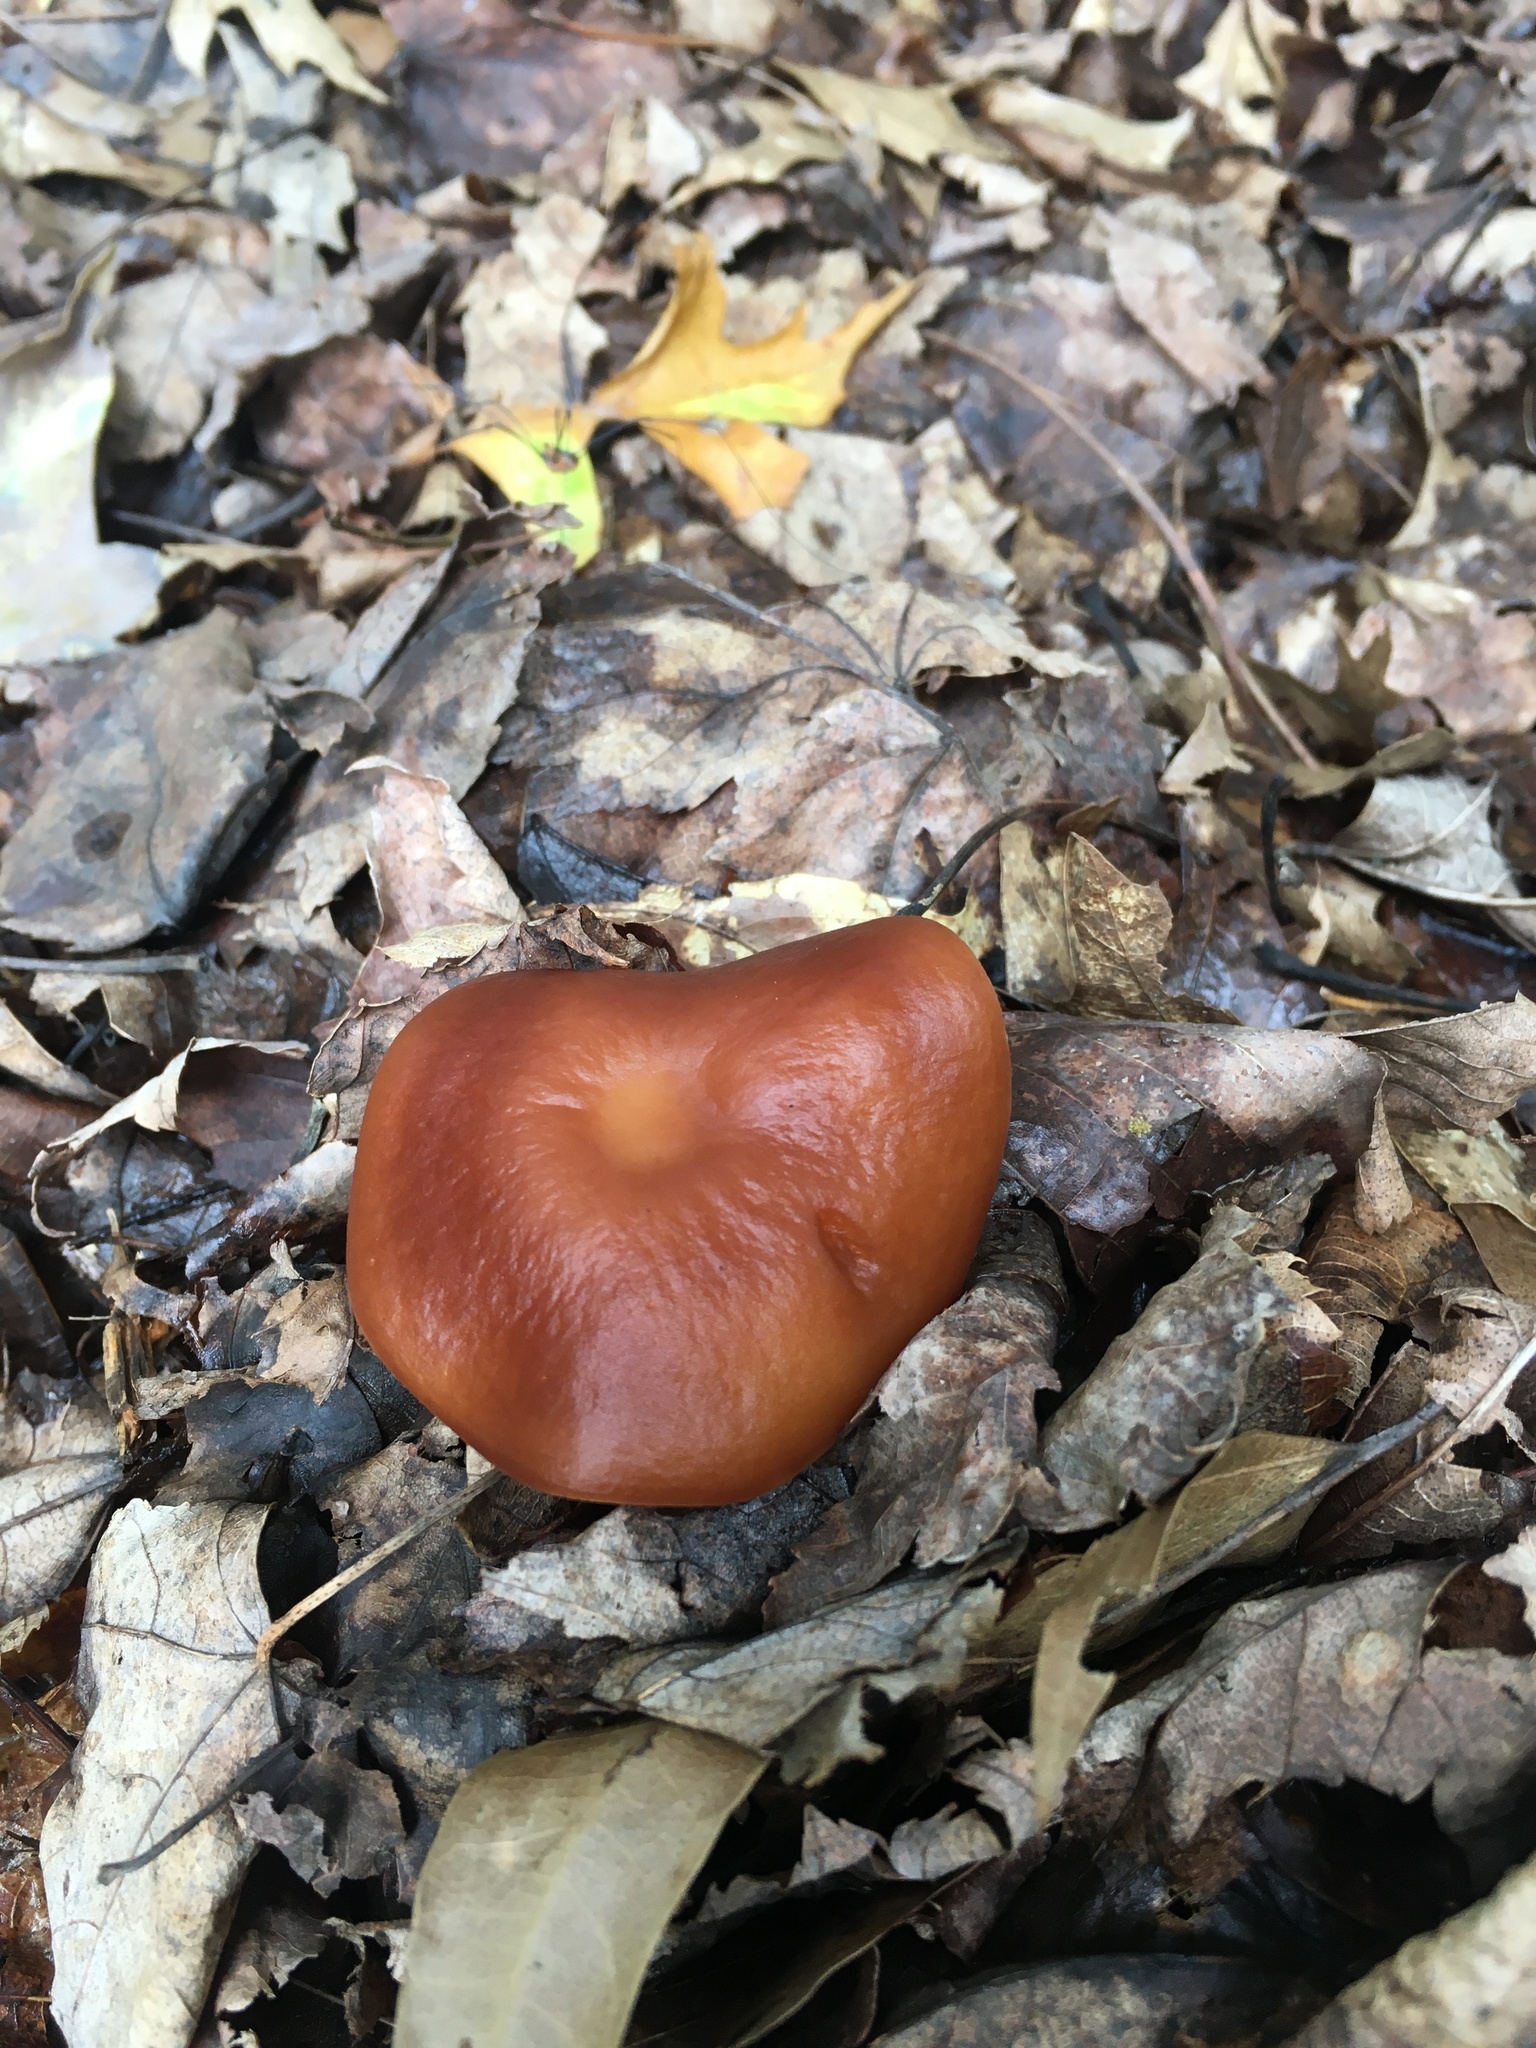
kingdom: Fungi
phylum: Basidiomycota
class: Agaricomycetes
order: Agaricales
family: Omphalotaceae
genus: Gymnopus
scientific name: Gymnopus dryophilus
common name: Penny top
